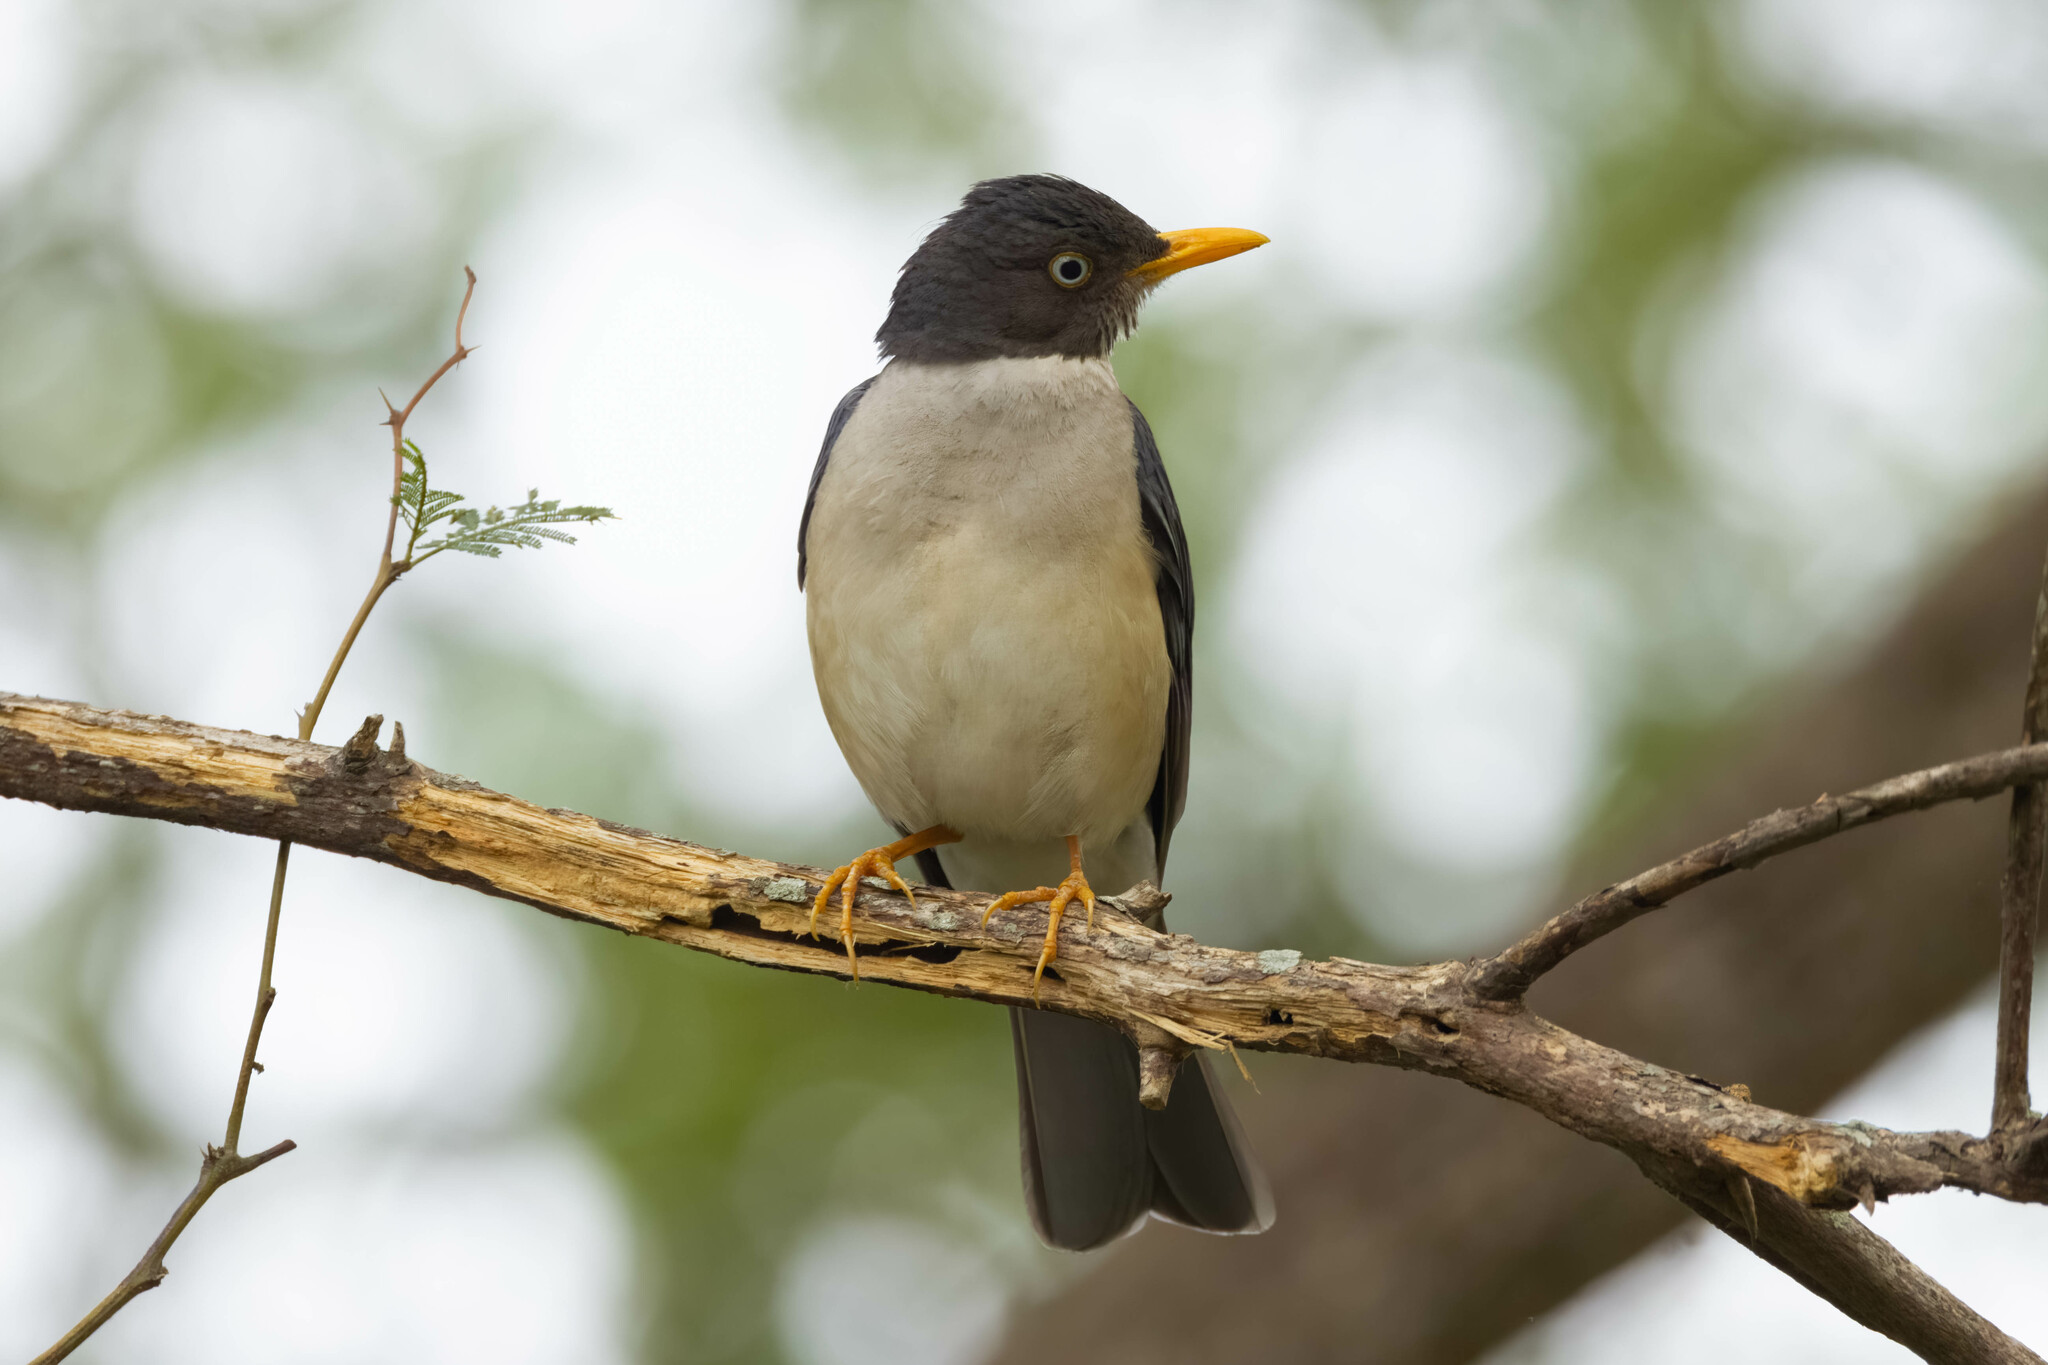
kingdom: Animalia
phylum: Chordata
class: Aves
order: Passeriformes
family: Turdidae
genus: Turdus
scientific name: Turdus reevei
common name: Plumbeous-backed thrush
